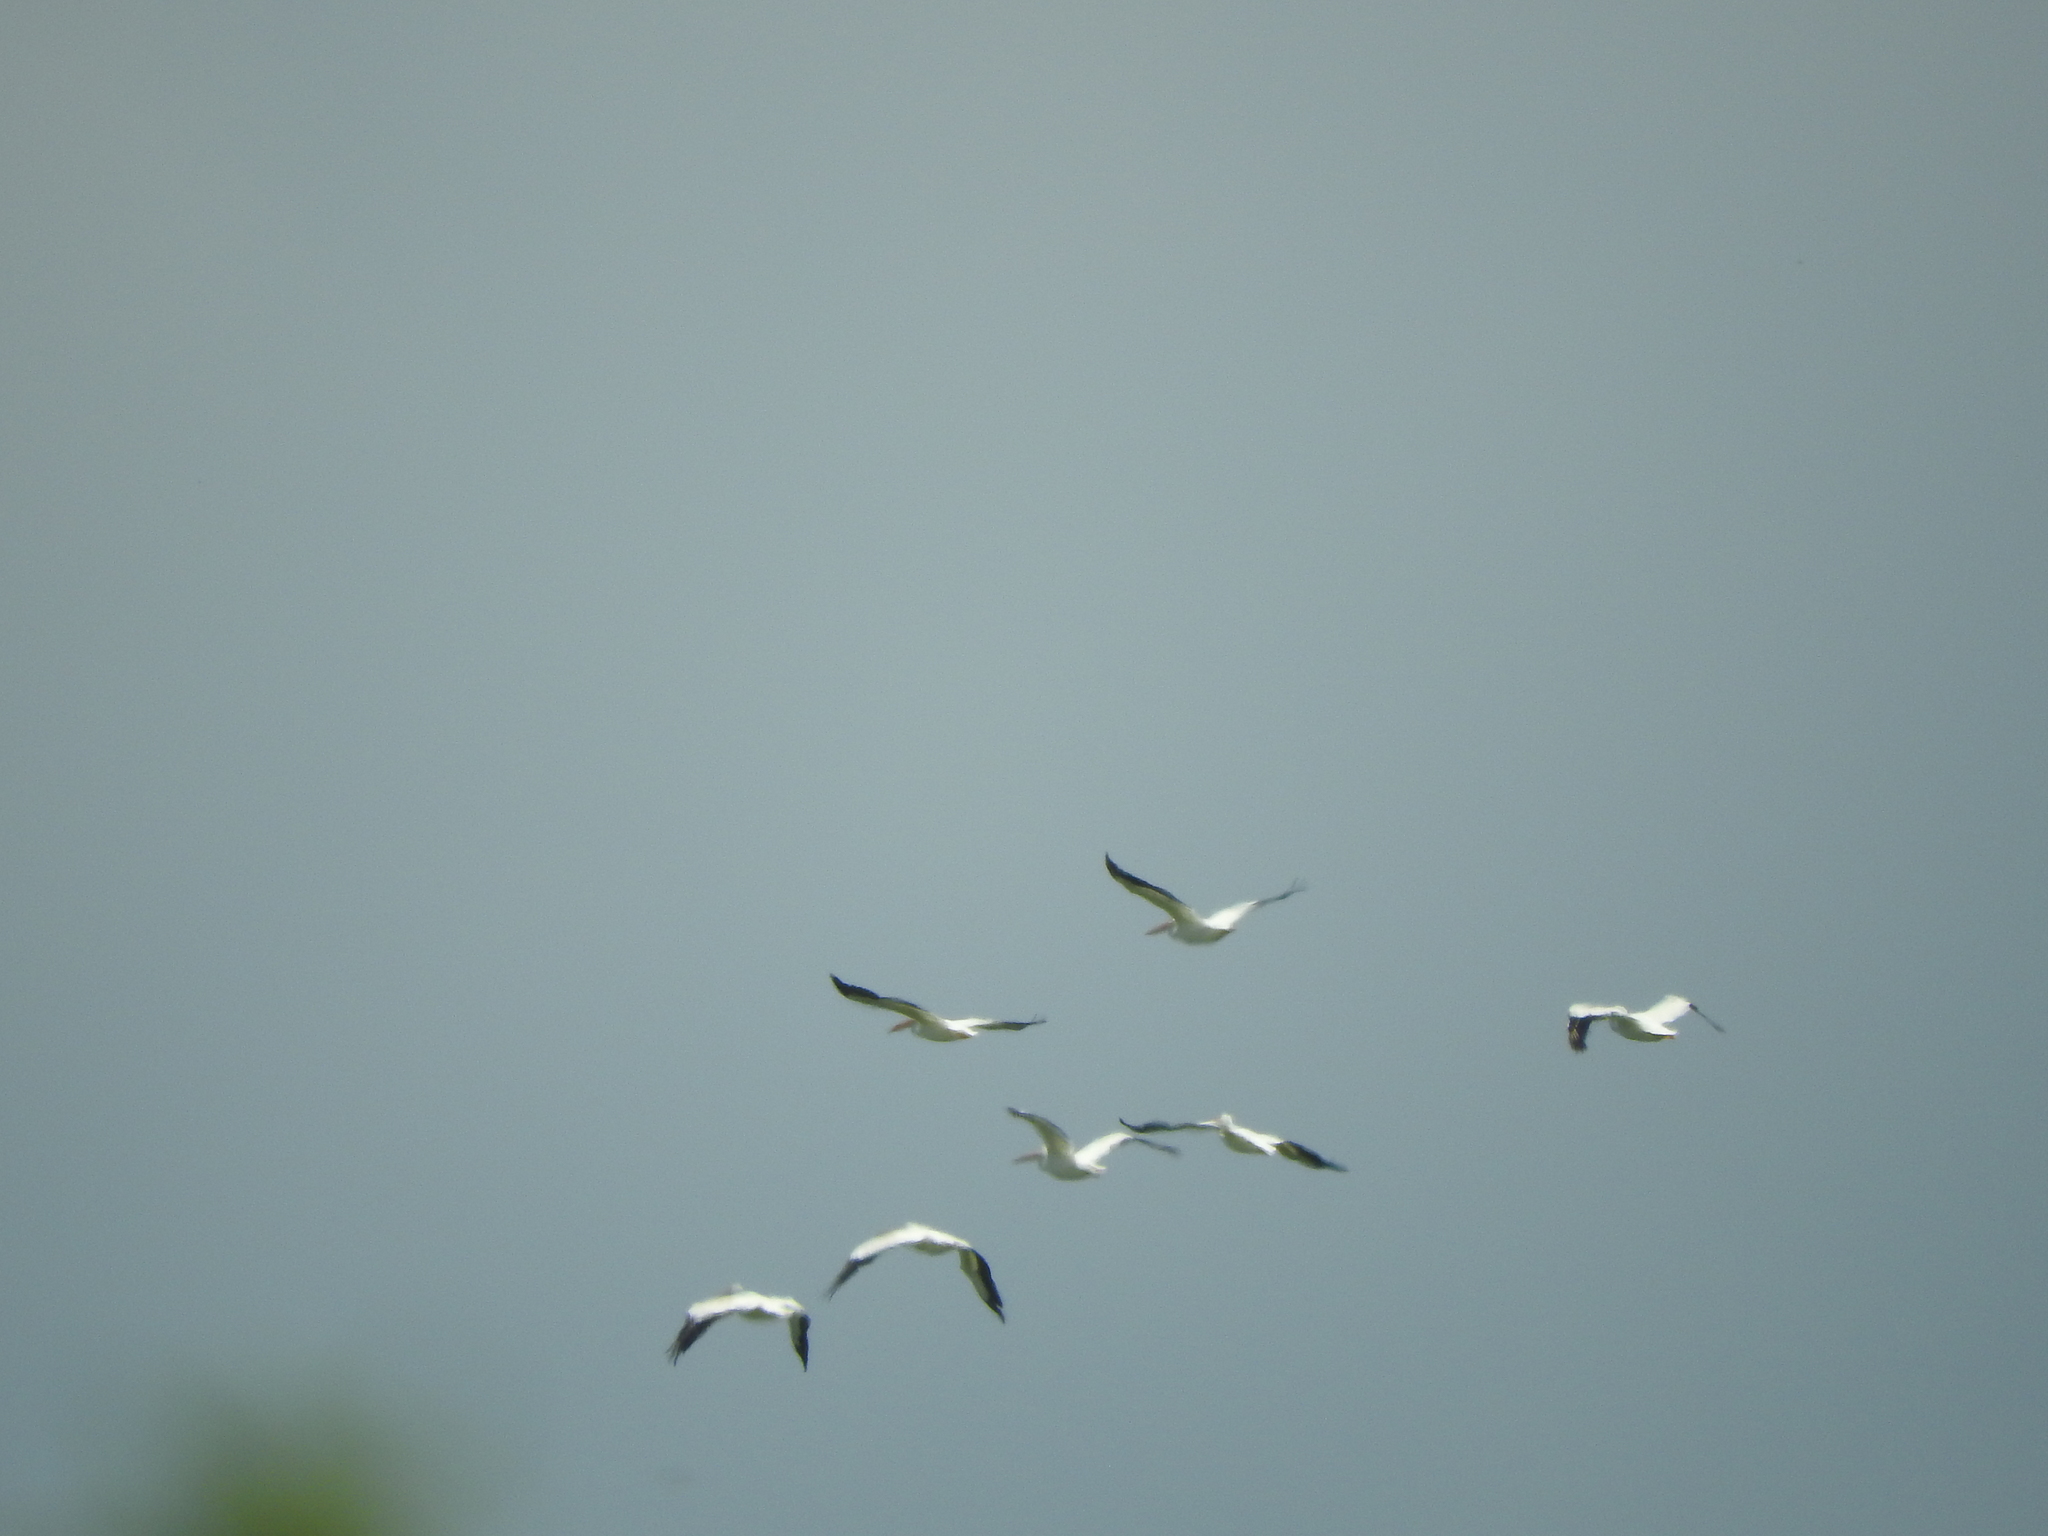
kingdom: Animalia
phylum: Chordata
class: Aves
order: Pelecaniformes
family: Pelecanidae
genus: Pelecanus
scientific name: Pelecanus erythrorhynchos
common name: American white pelican
